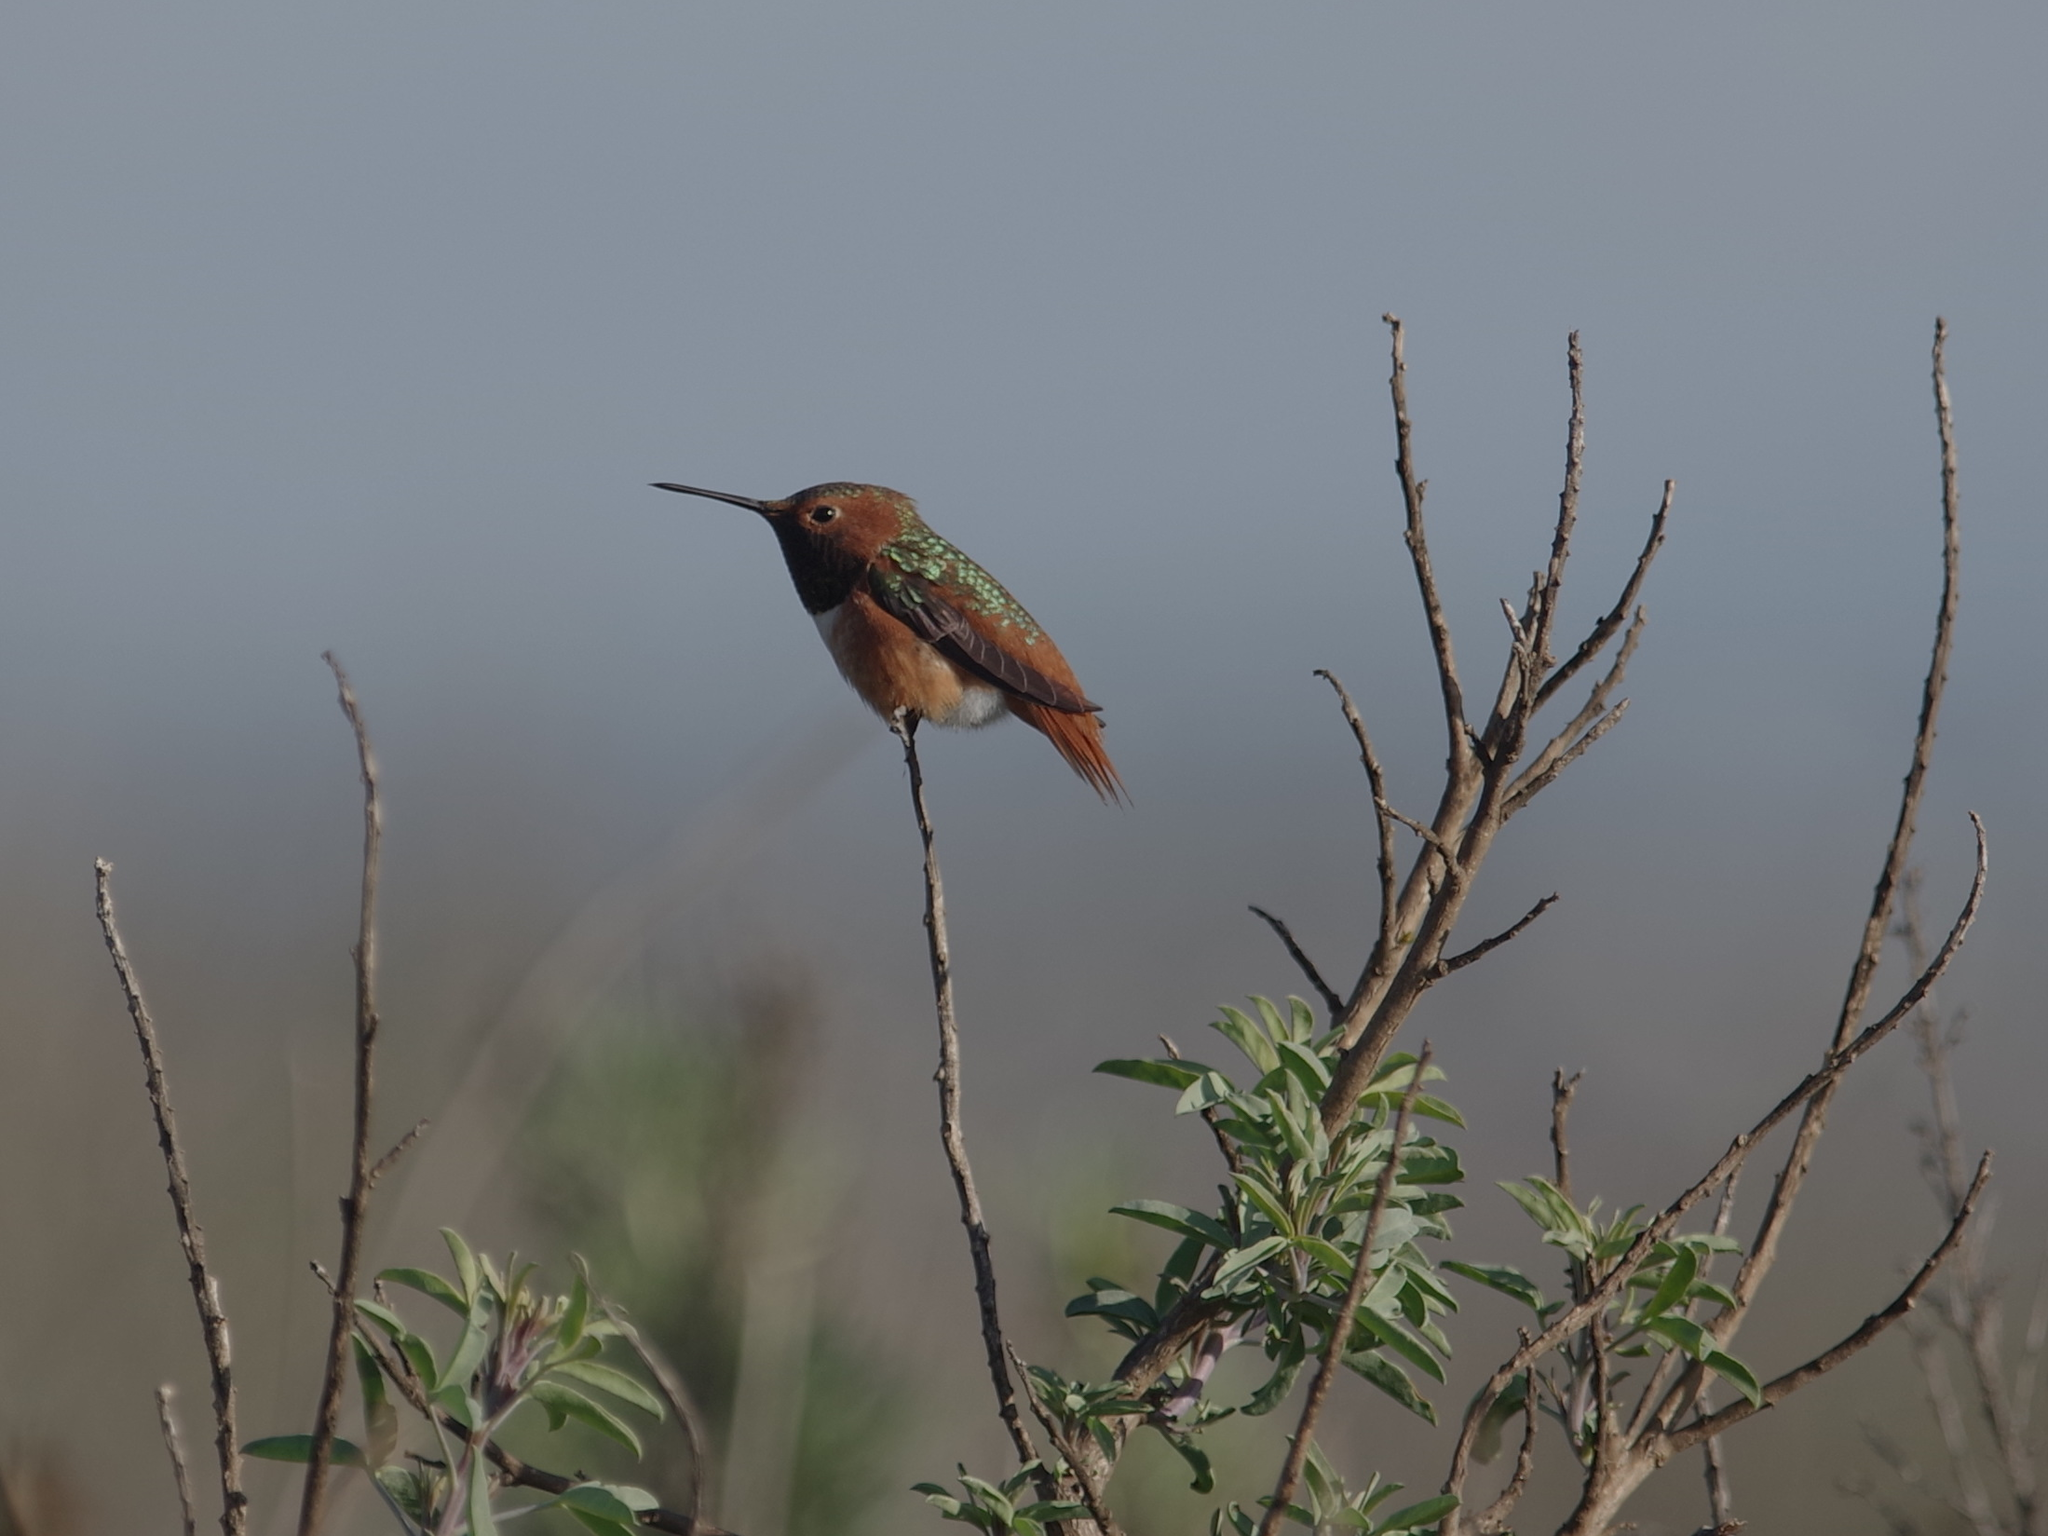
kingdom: Animalia
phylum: Chordata
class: Aves
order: Apodiformes
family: Trochilidae
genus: Selasphorus
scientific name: Selasphorus sasin
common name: Allen's hummingbird
